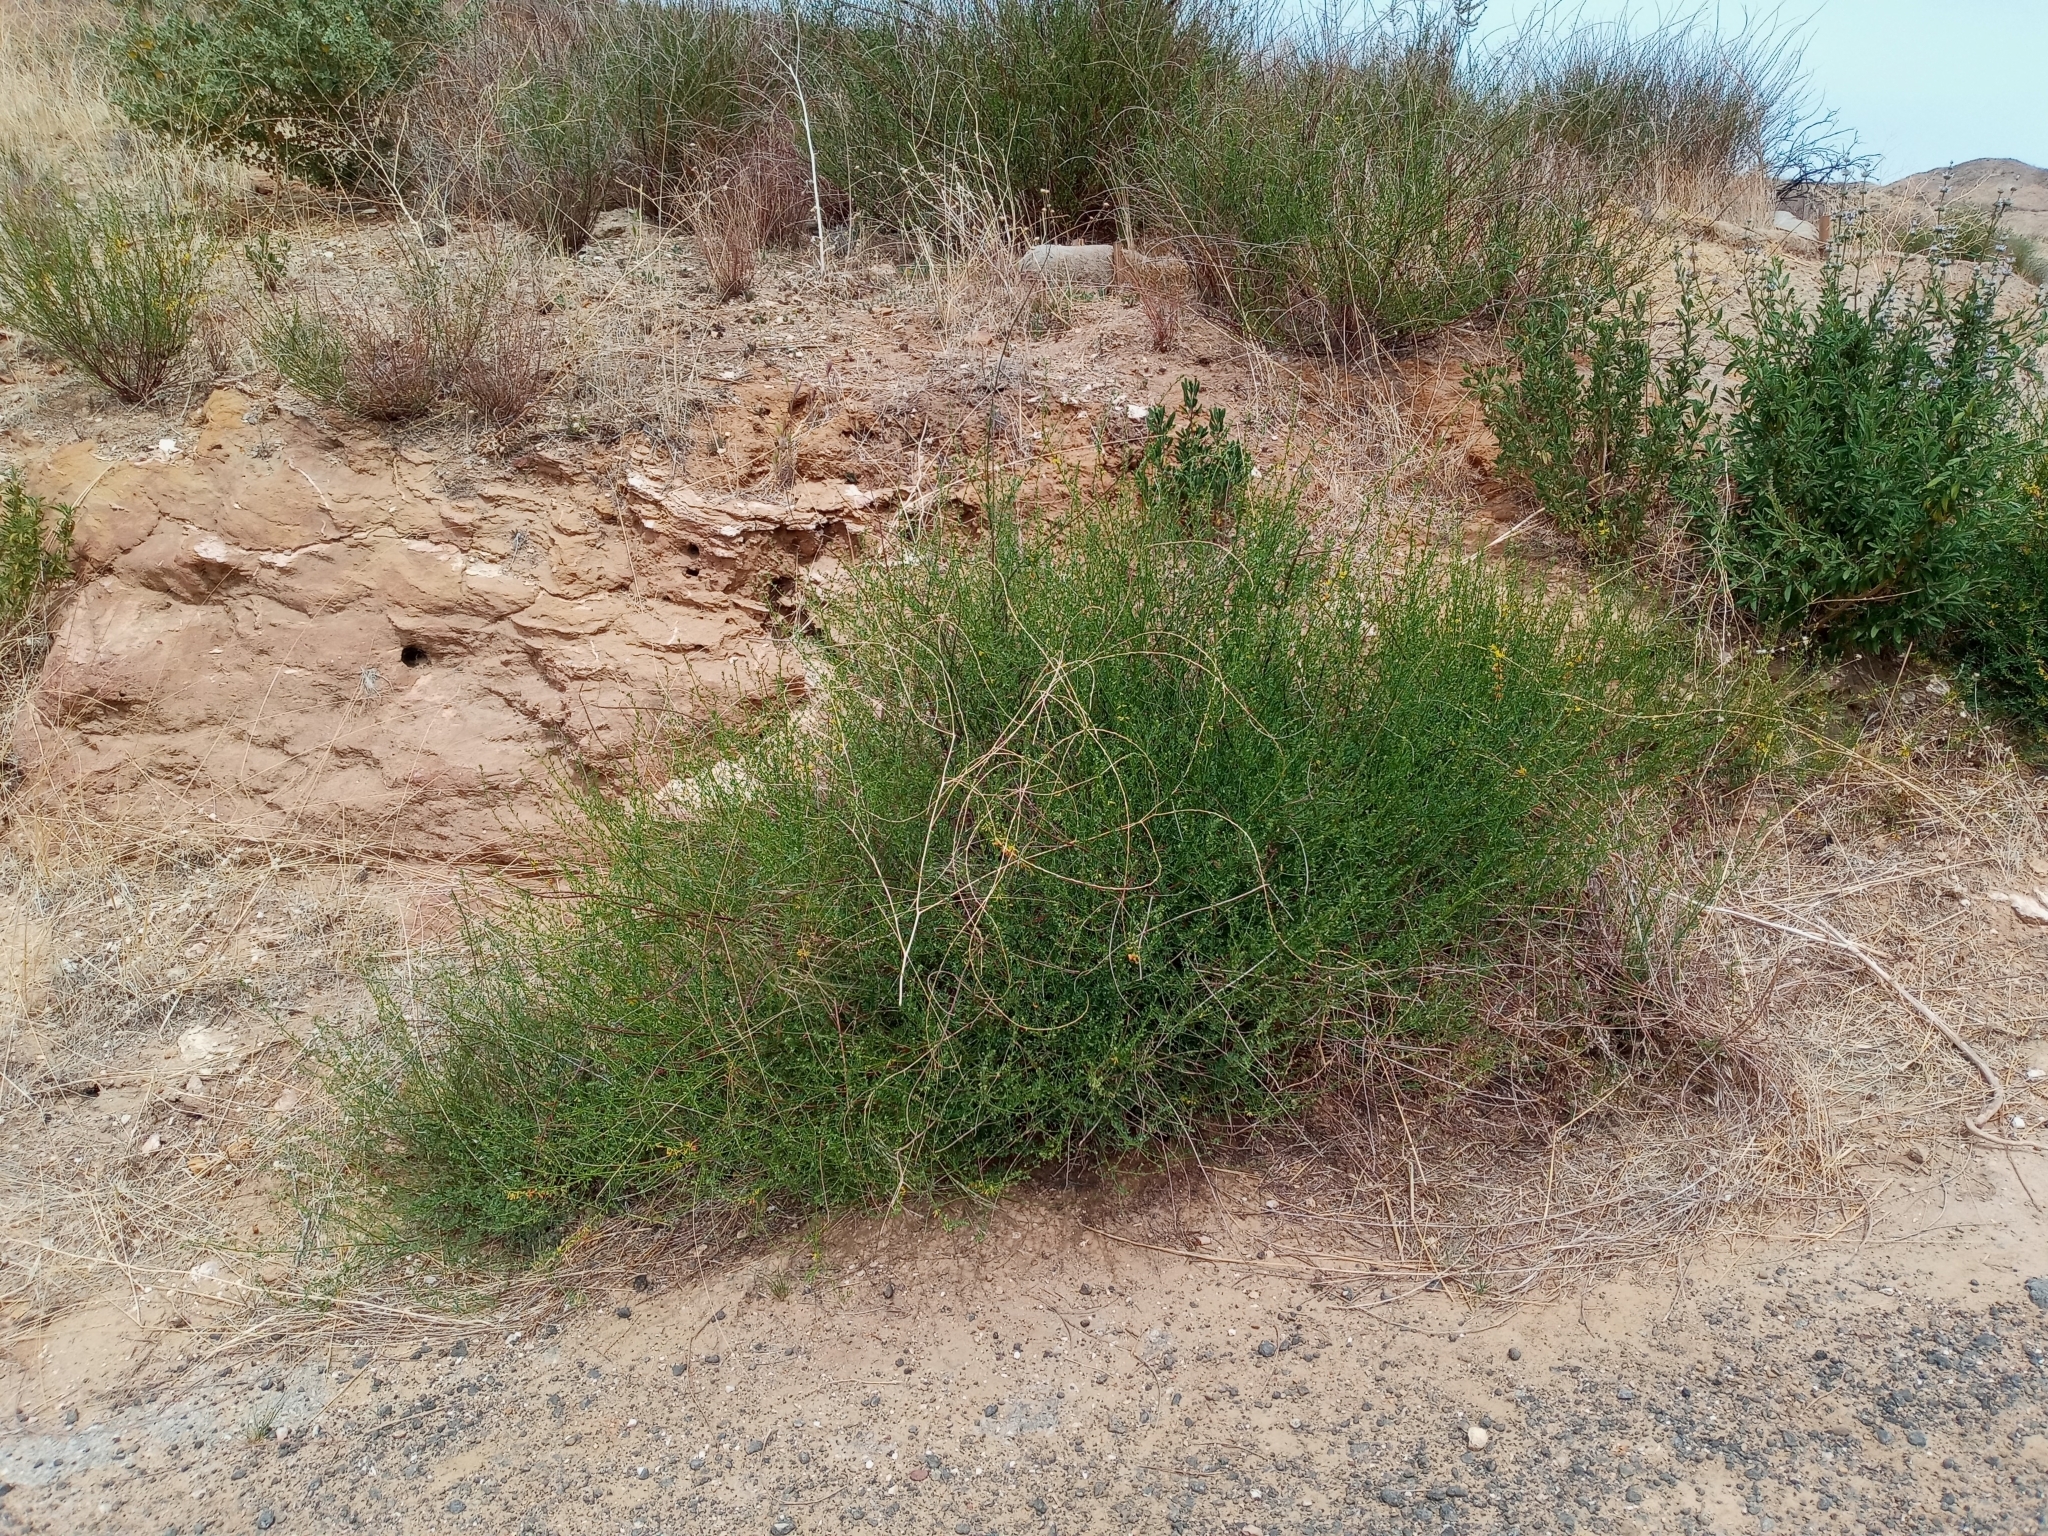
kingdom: Plantae
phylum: Tracheophyta
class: Magnoliopsida
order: Fabales
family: Fabaceae
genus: Acmispon
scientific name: Acmispon glaber
